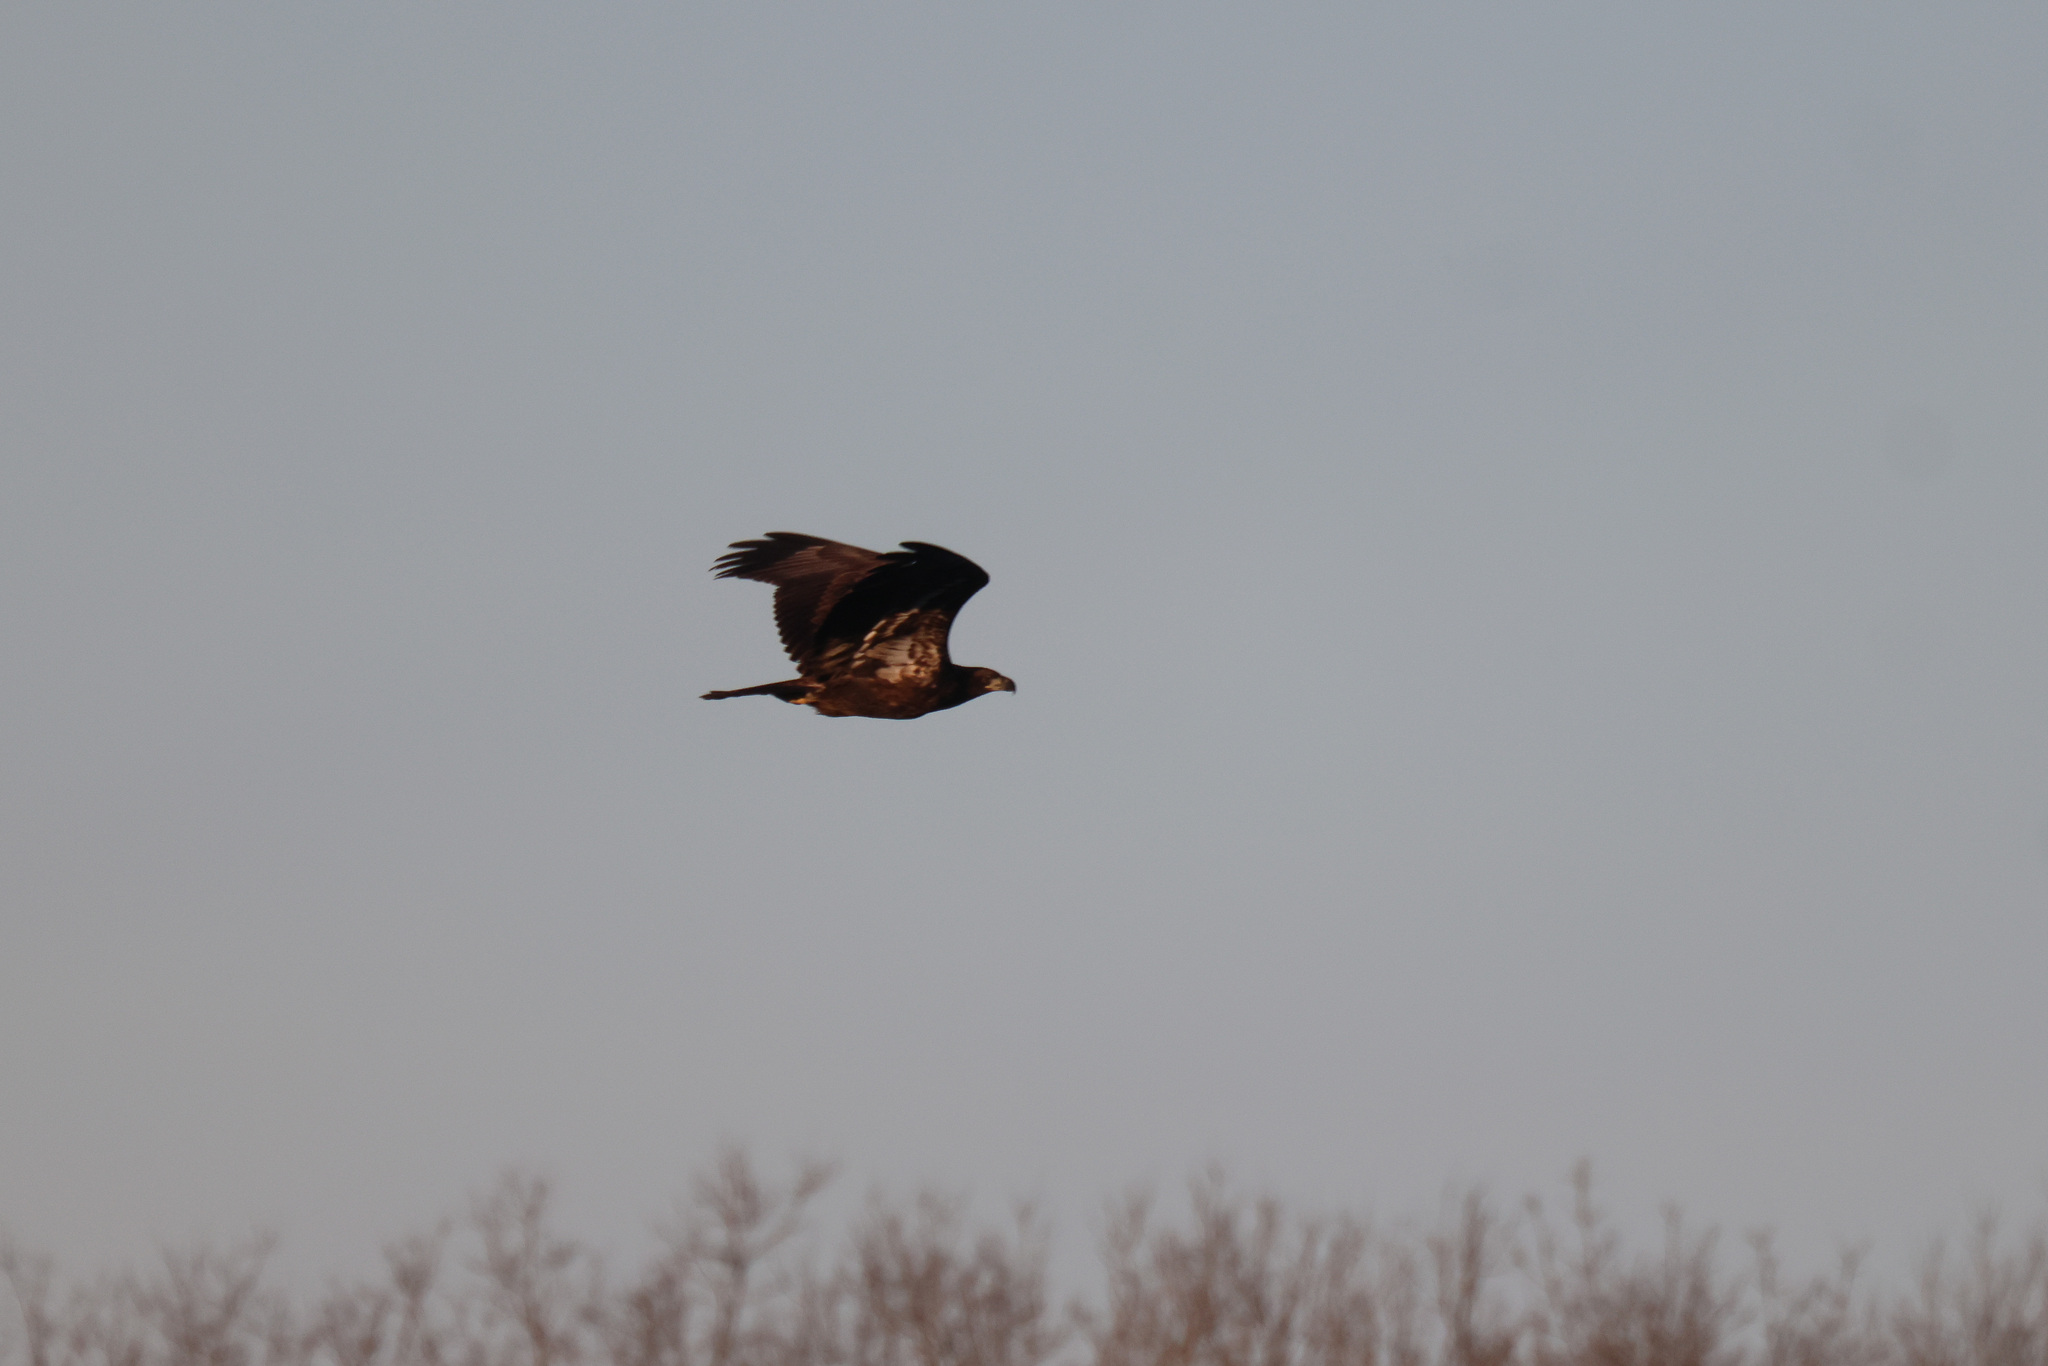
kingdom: Animalia
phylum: Chordata
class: Aves
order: Accipitriformes
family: Accipitridae
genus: Haliaeetus
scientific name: Haliaeetus leucocephalus
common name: Bald eagle
